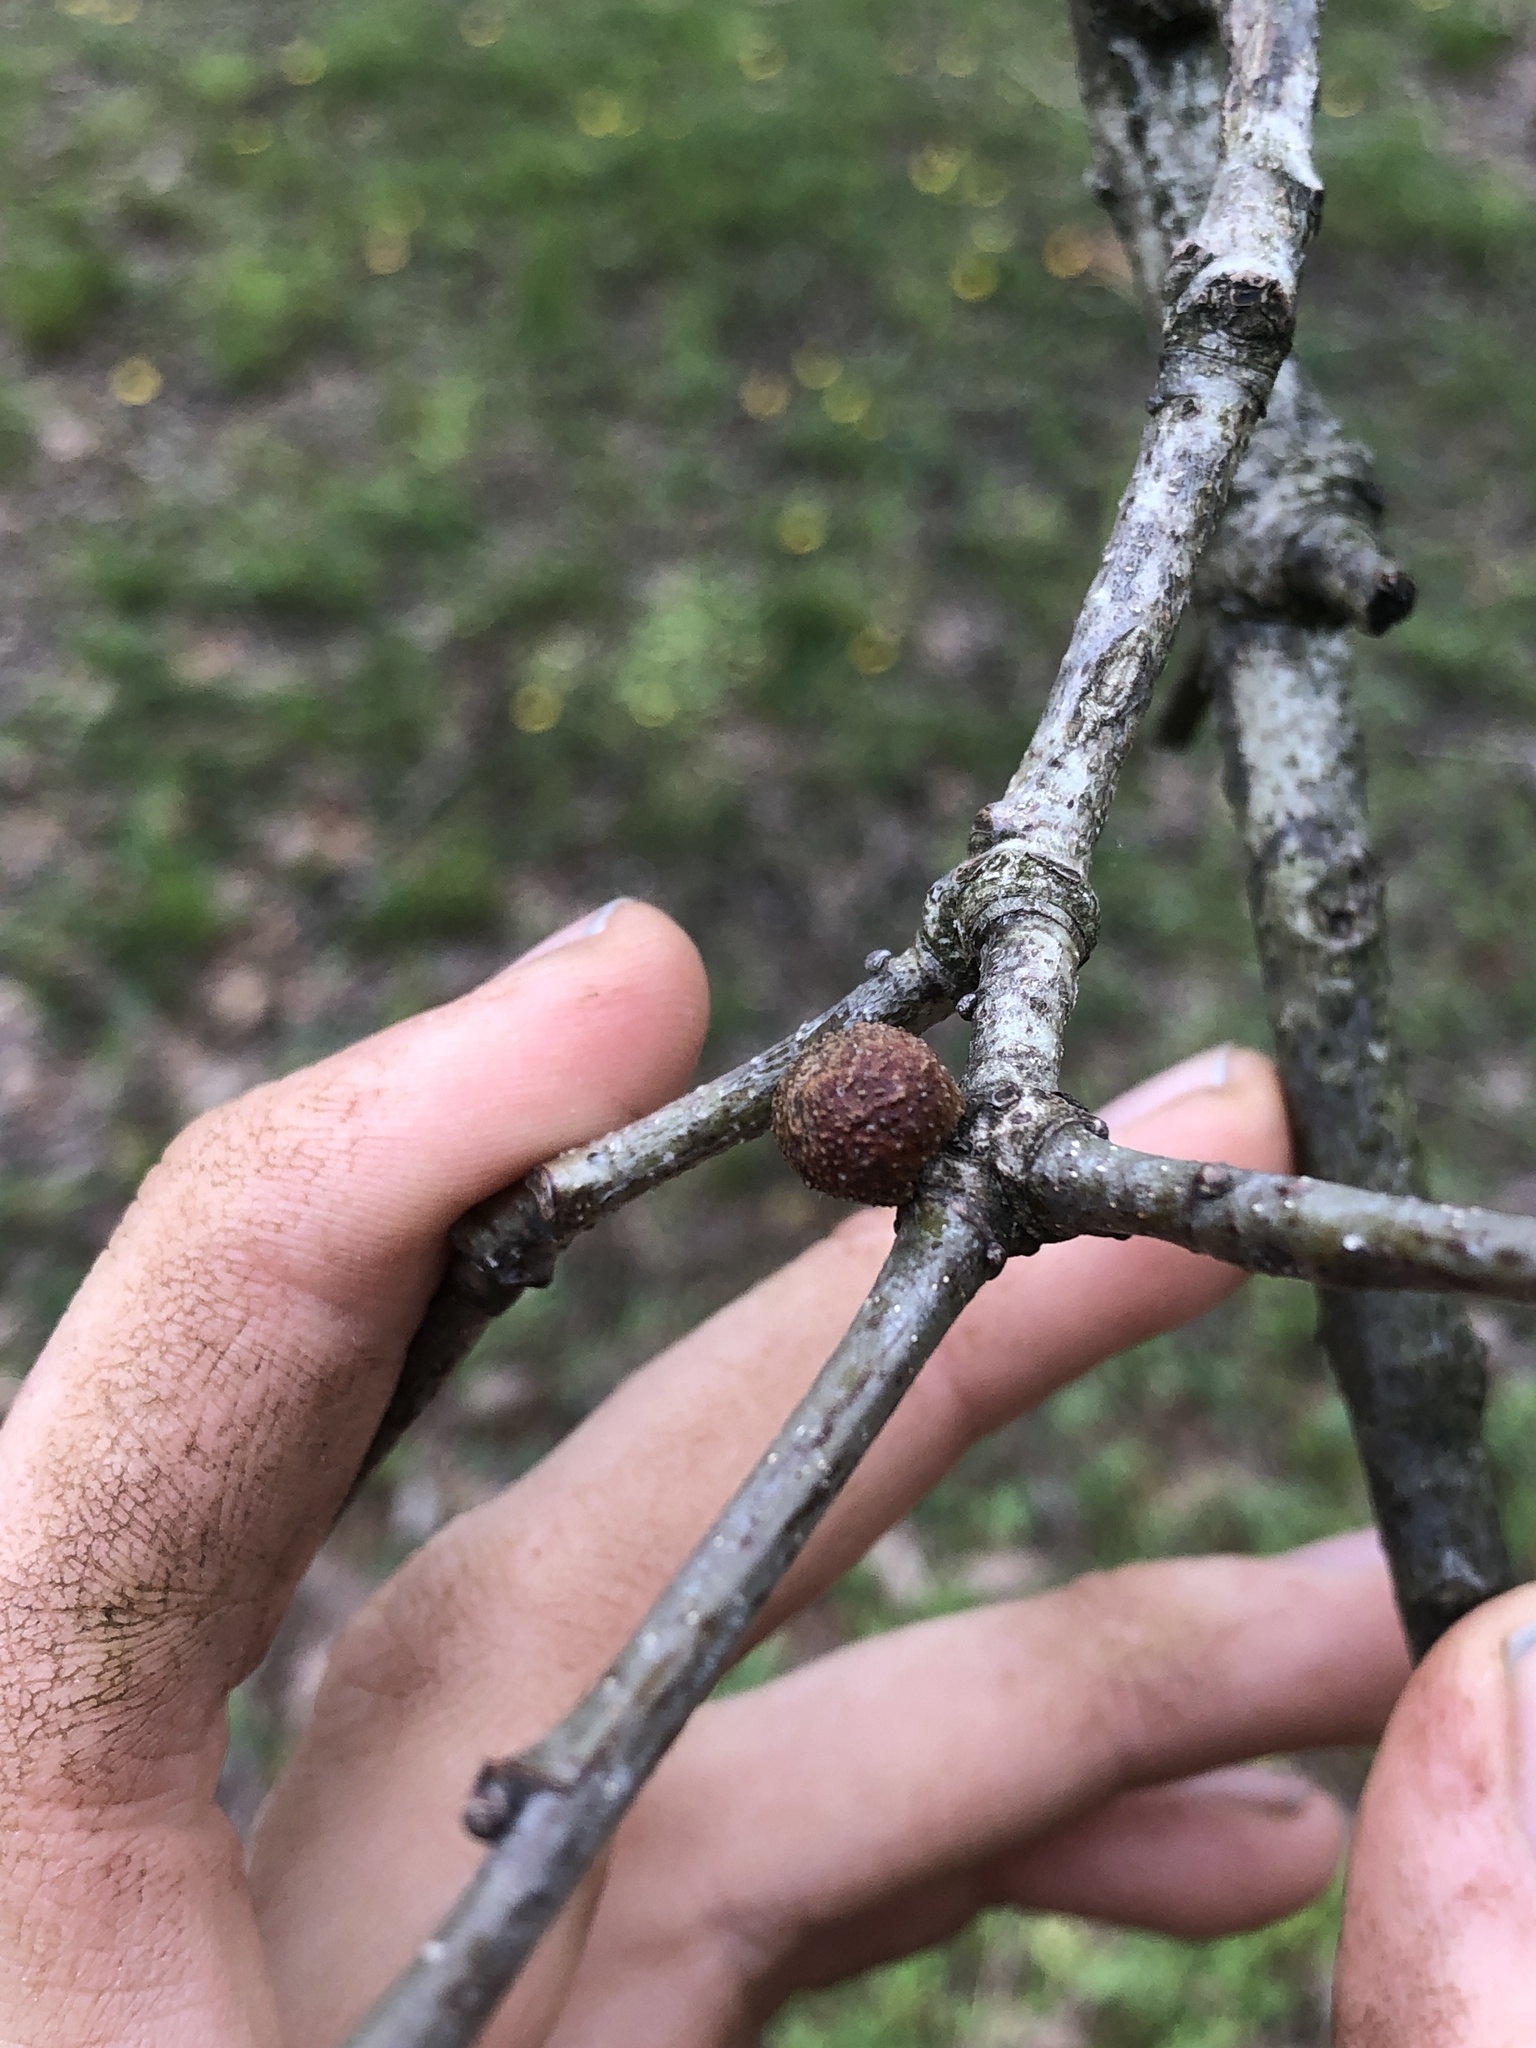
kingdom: Animalia
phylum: Arthropoda
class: Insecta
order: Hymenoptera
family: Cynipidae
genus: Disholcaspis
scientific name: Disholcaspis quercusglobulus
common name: Round bullet gall wasp
